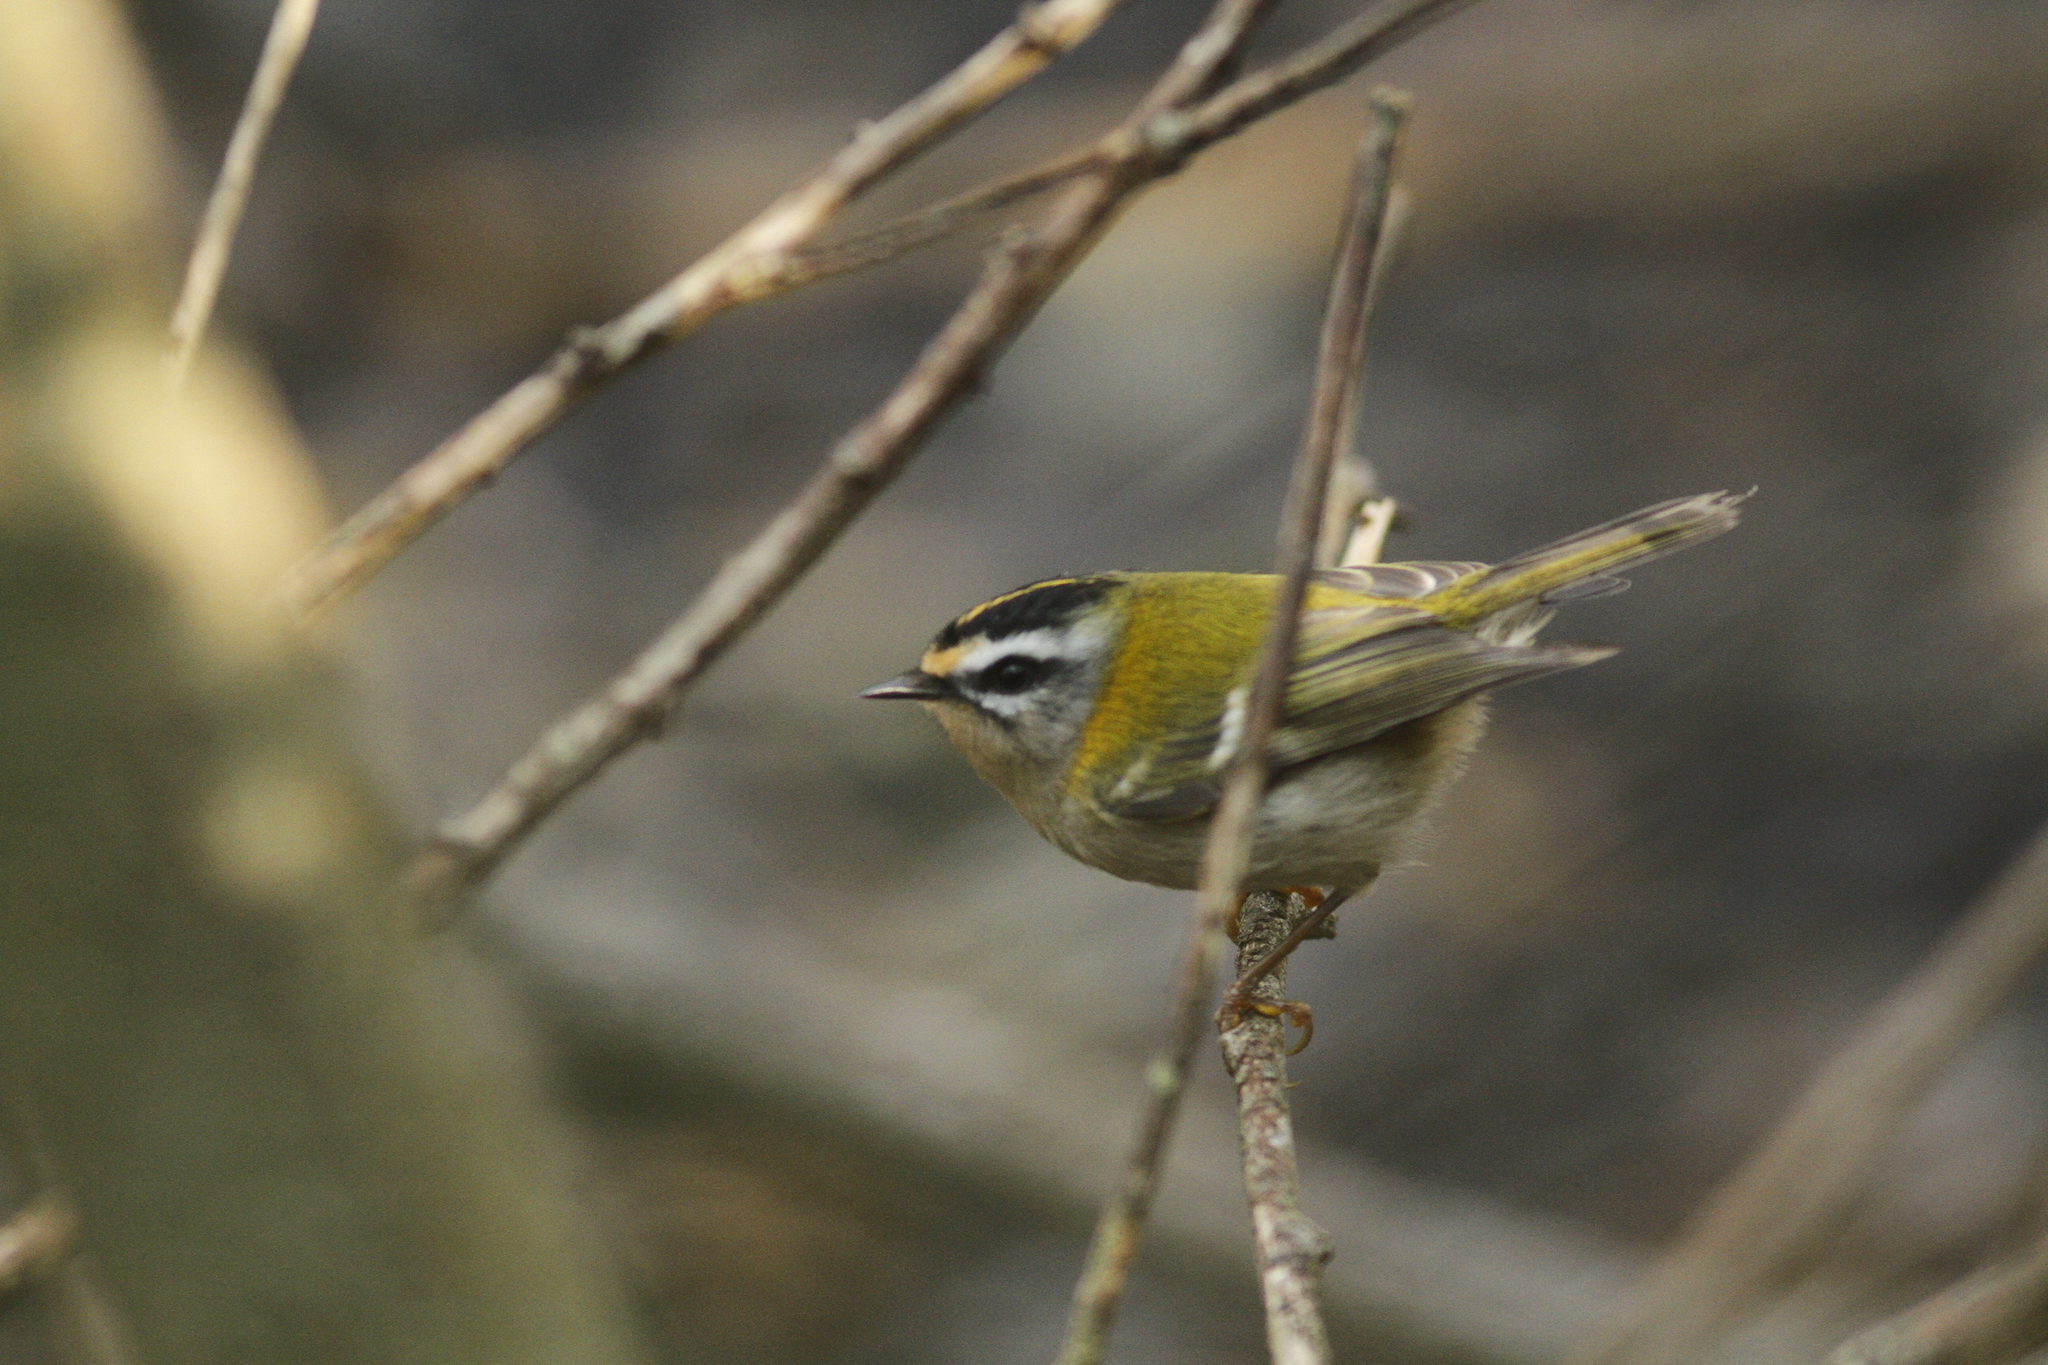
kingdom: Animalia
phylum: Chordata
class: Aves
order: Passeriformes
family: Regulidae
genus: Regulus
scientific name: Regulus ignicapilla
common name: Firecrest
